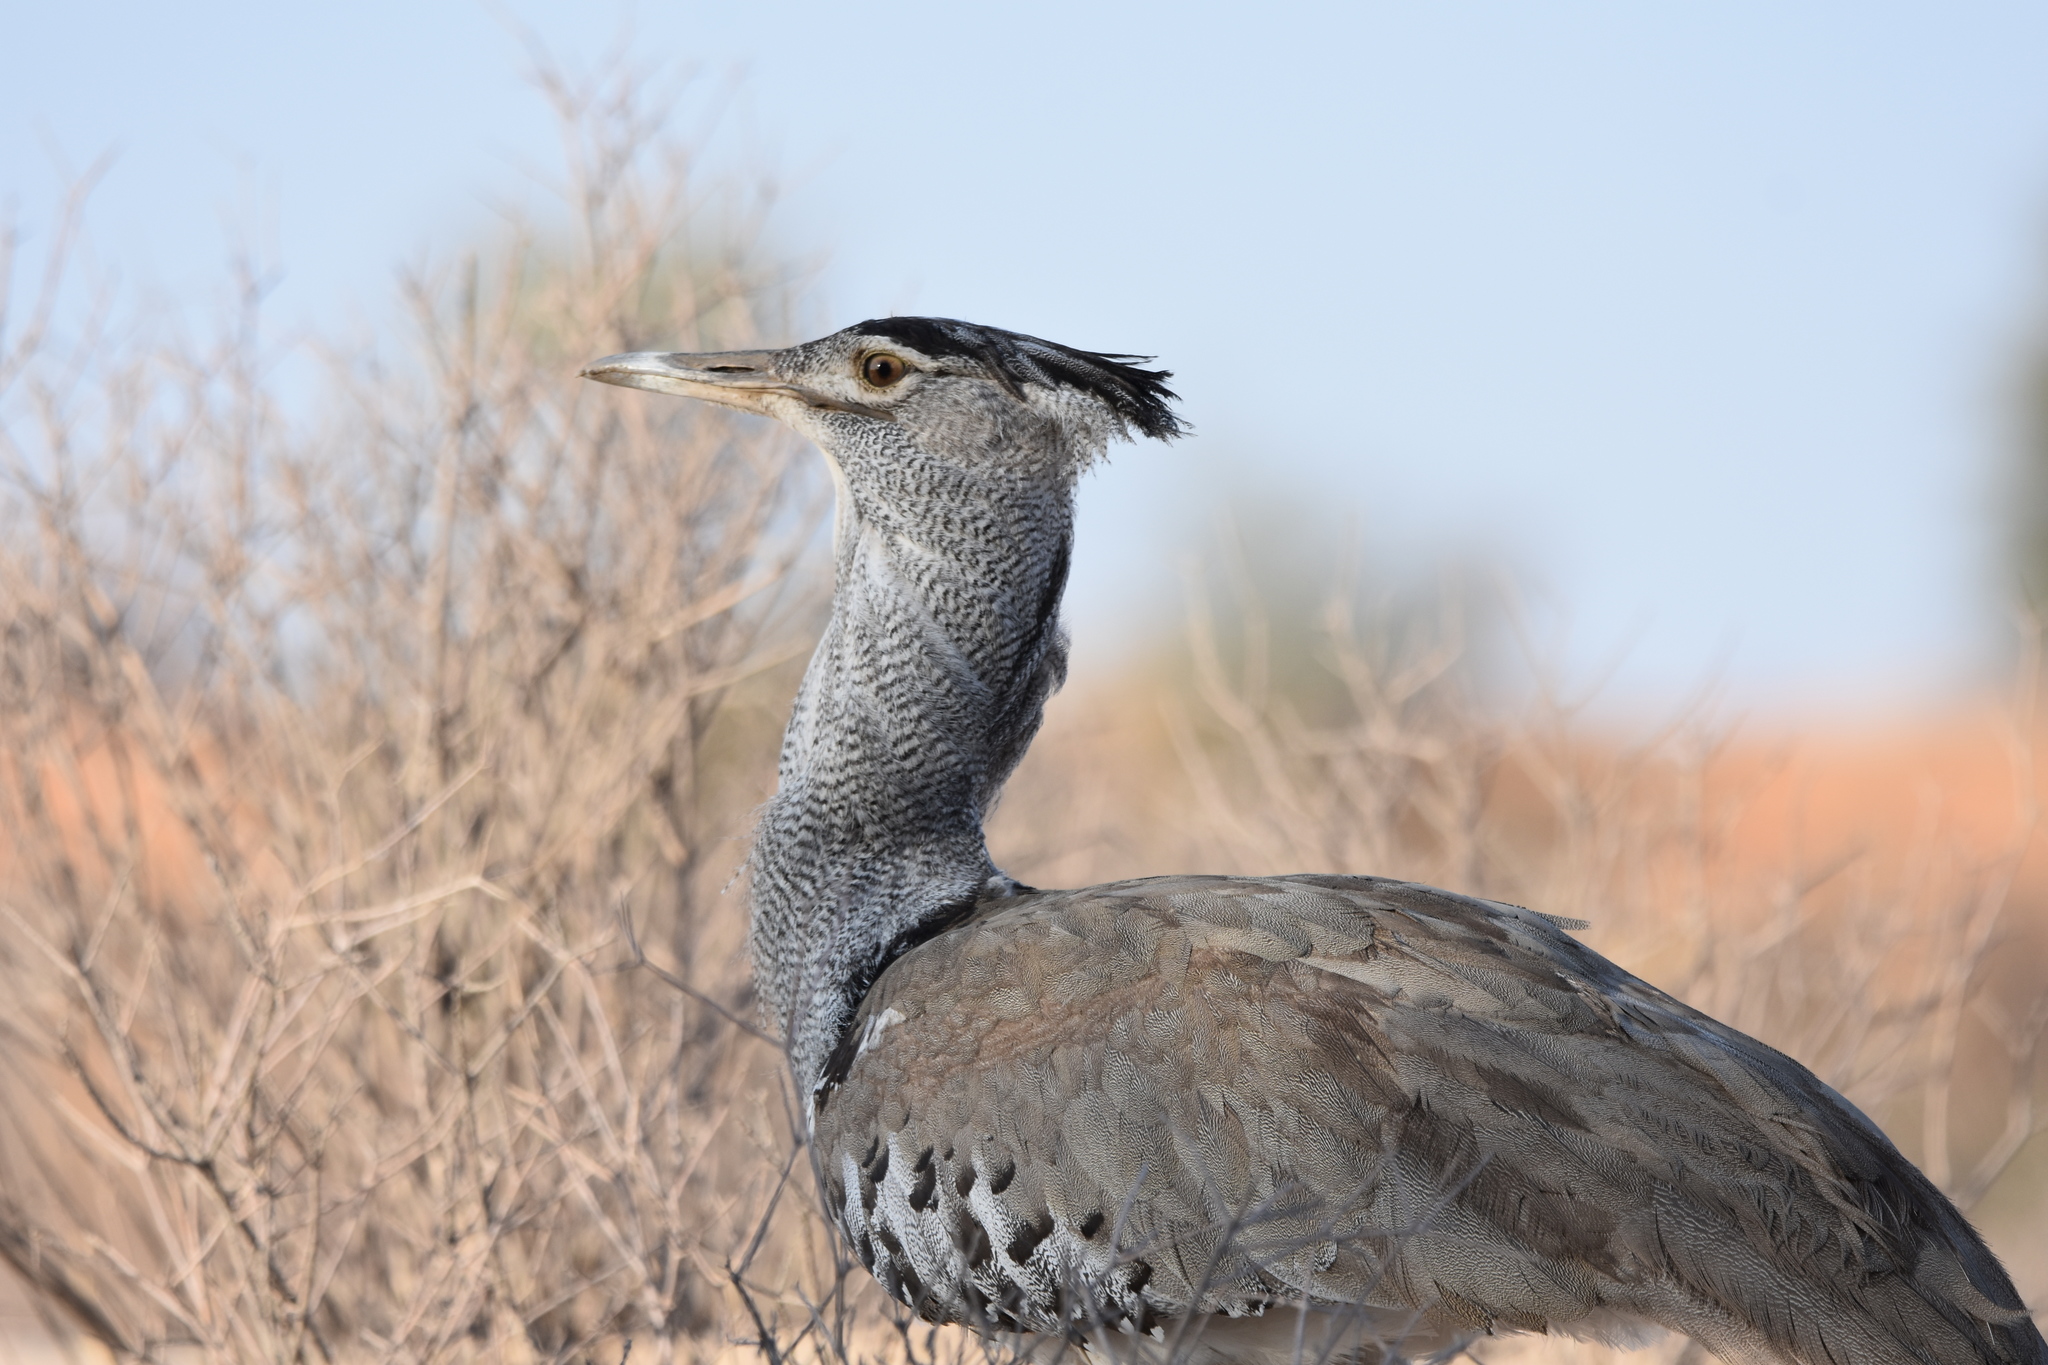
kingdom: Animalia
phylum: Chordata
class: Aves
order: Otidiformes
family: Otididae
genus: Ardeotis
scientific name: Ardeotis kori
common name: Kori bustard
